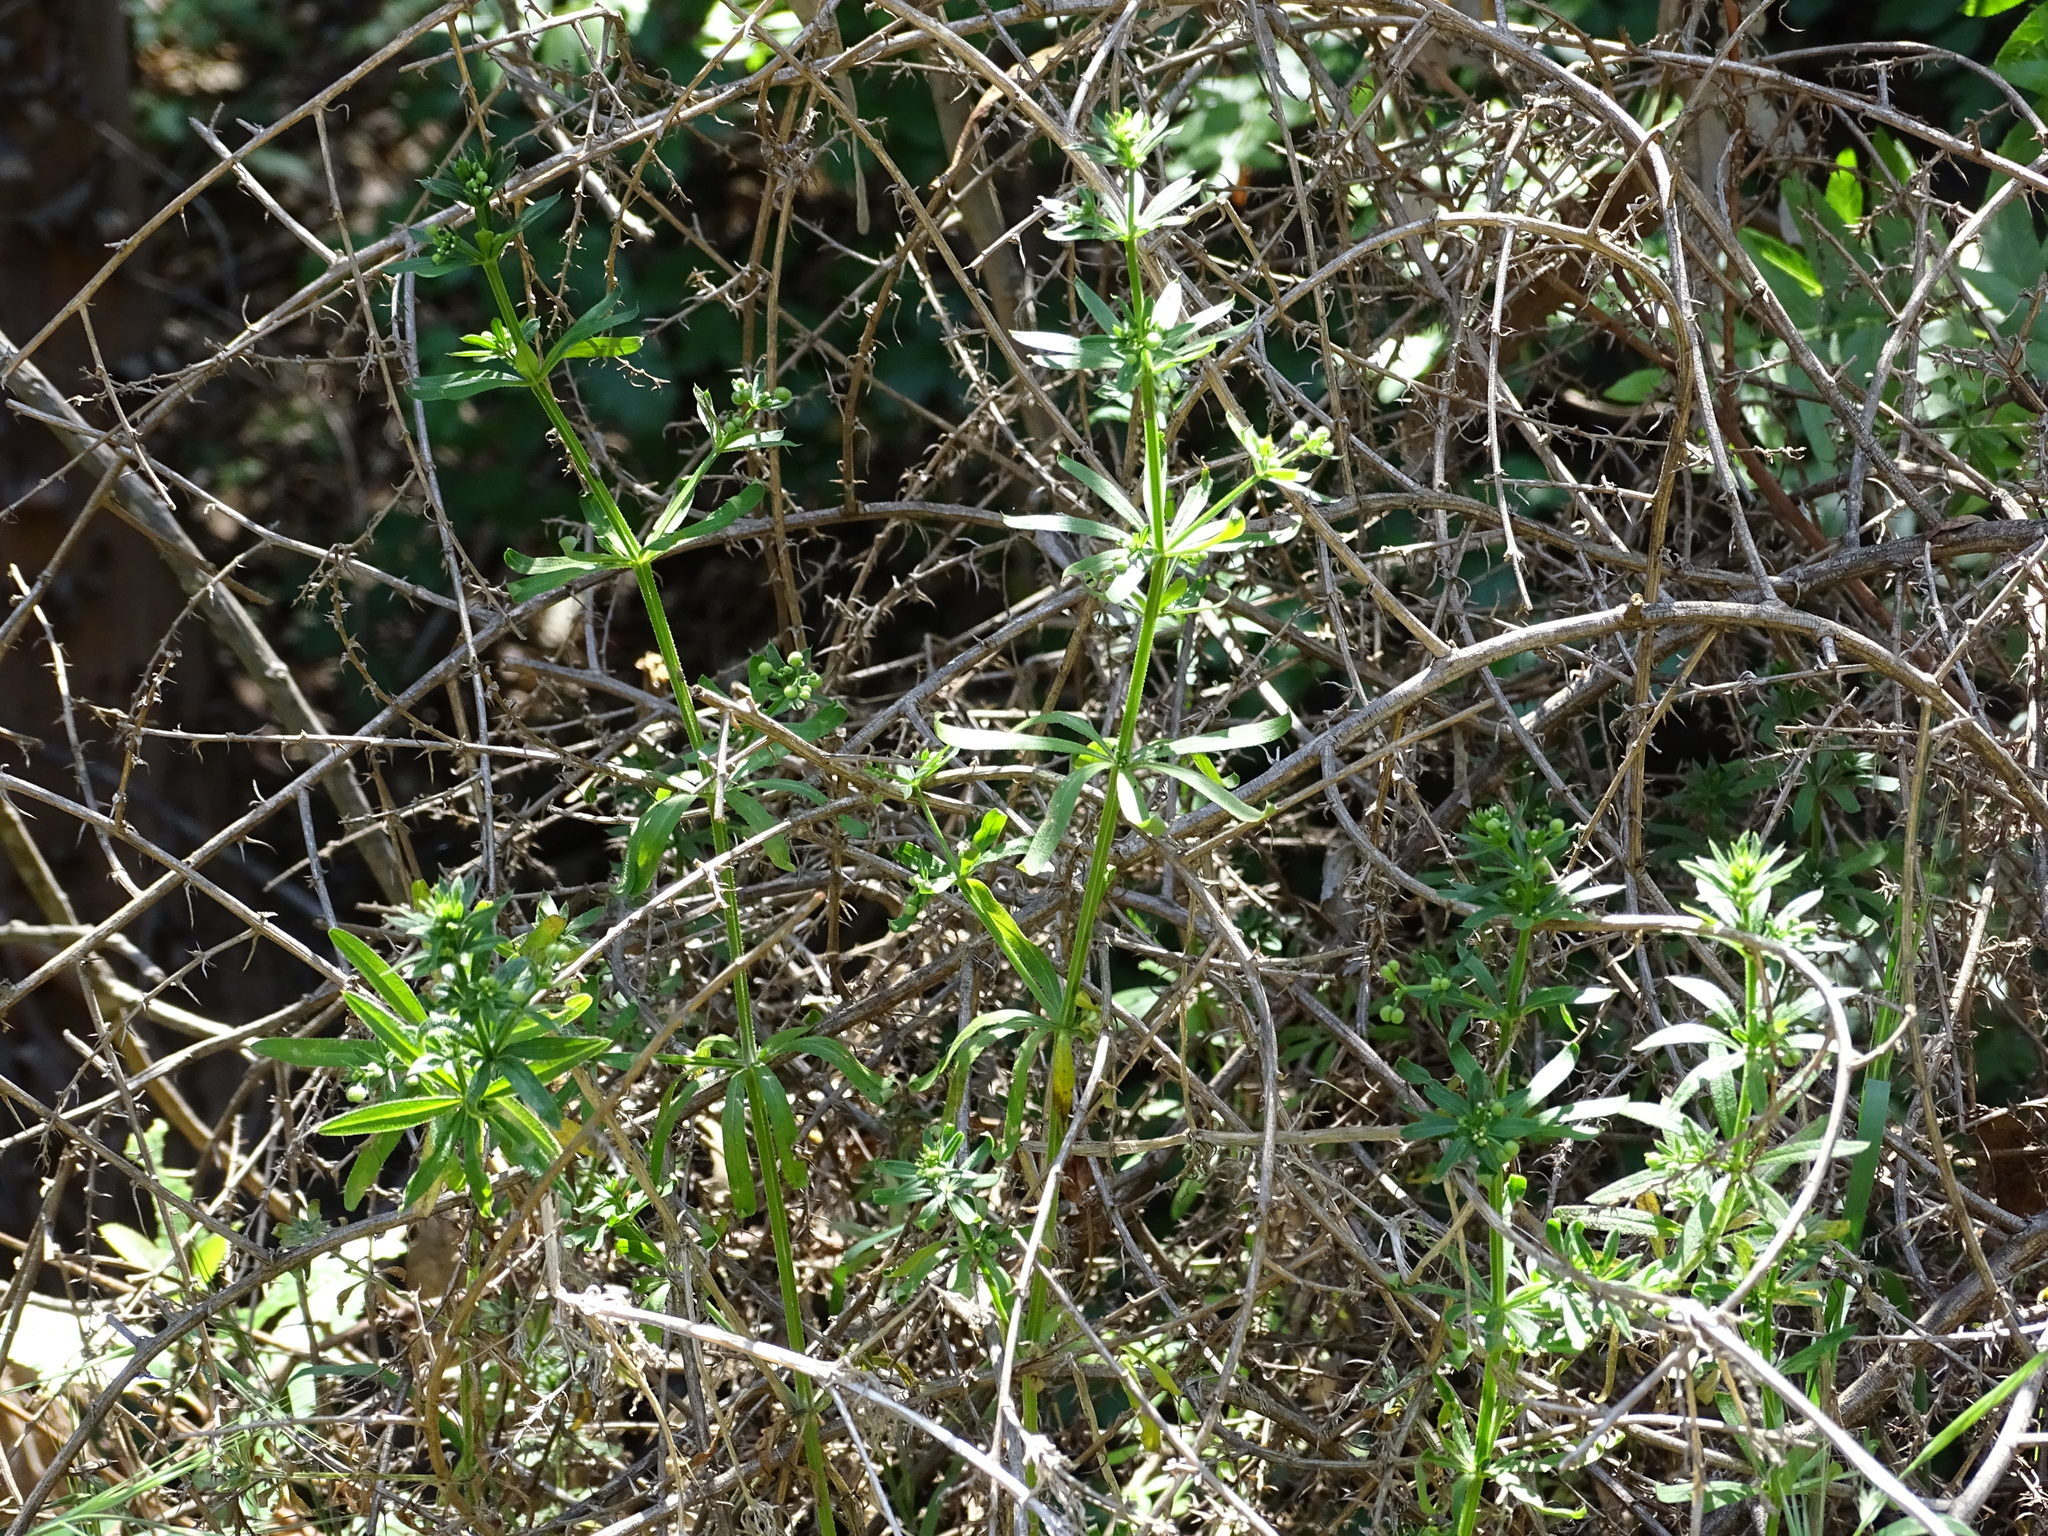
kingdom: Plantae
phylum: Tracheophyta
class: Magnoliopsida
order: Gentianales
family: Rubiaceae
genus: Galium
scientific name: Galium aparine
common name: Cleavers
